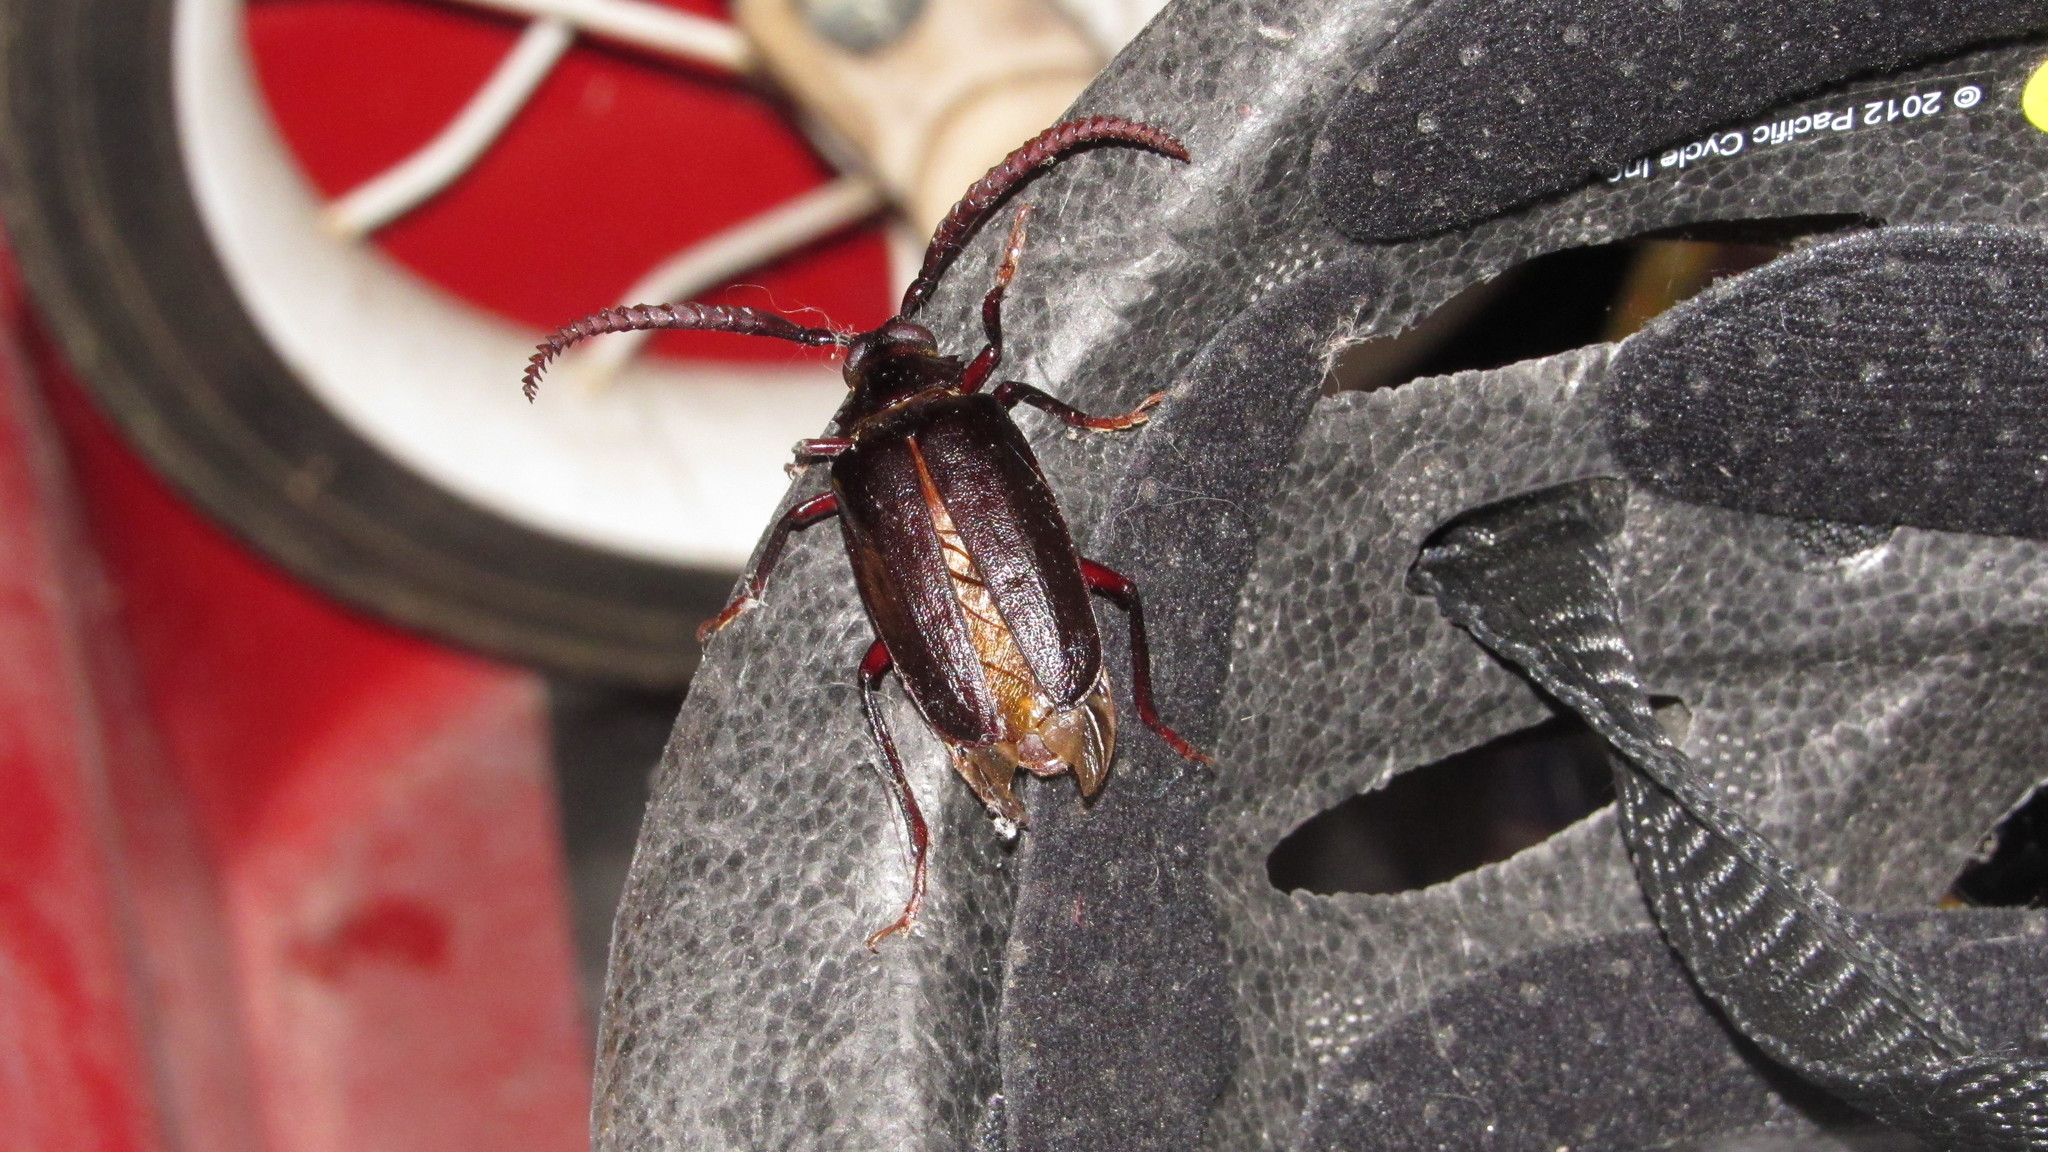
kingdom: Animalia
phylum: Arthropoda
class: Insecta
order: Coleoptera
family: Cerambycidae
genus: Prionus
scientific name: Prionus imbricornis
